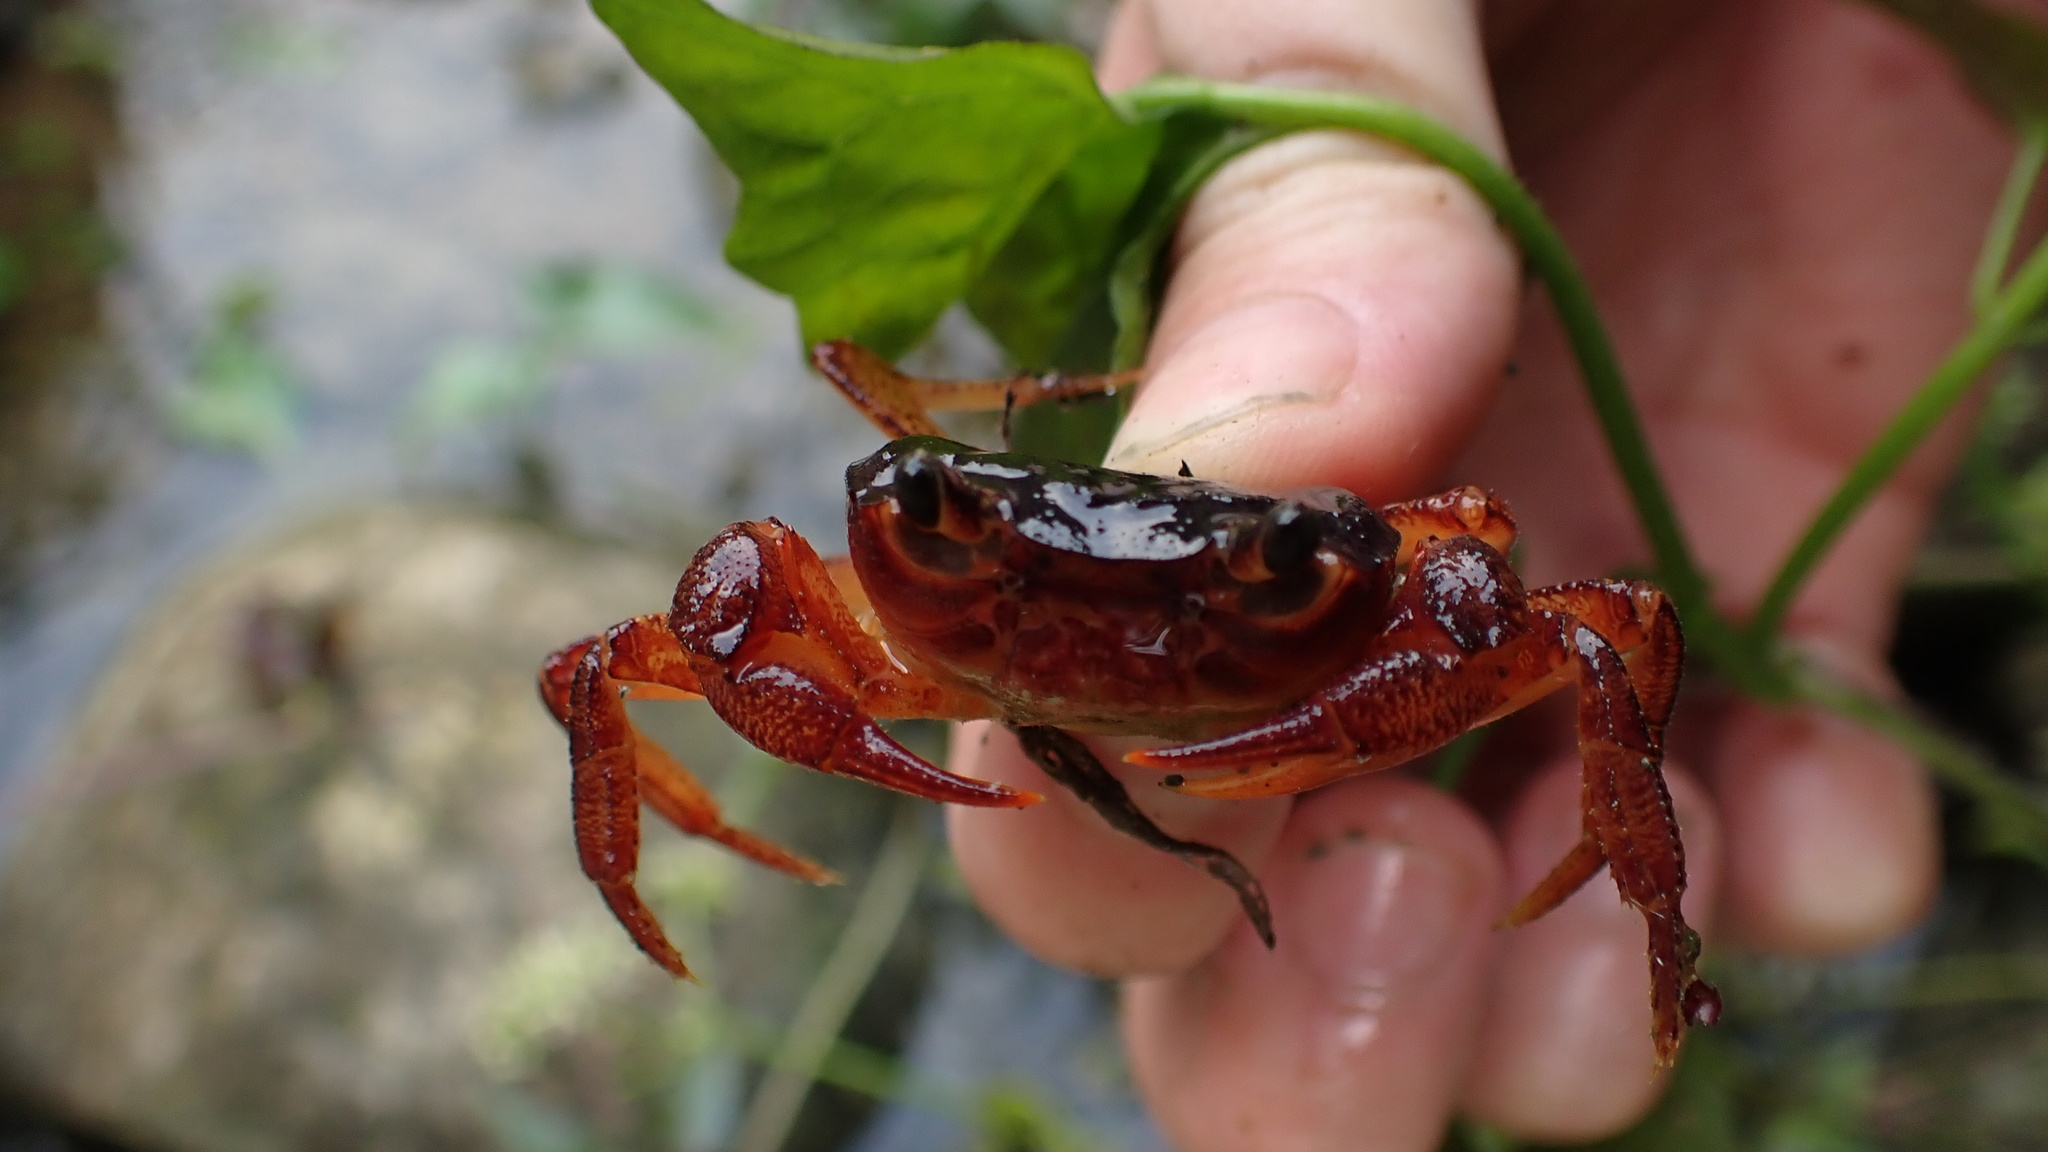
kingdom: Animalia
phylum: Arthropoda
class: Malacostraca
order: Decapoda
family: Potamidae
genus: Candidiopotamon
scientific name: Candidiopotamon rathbuni
